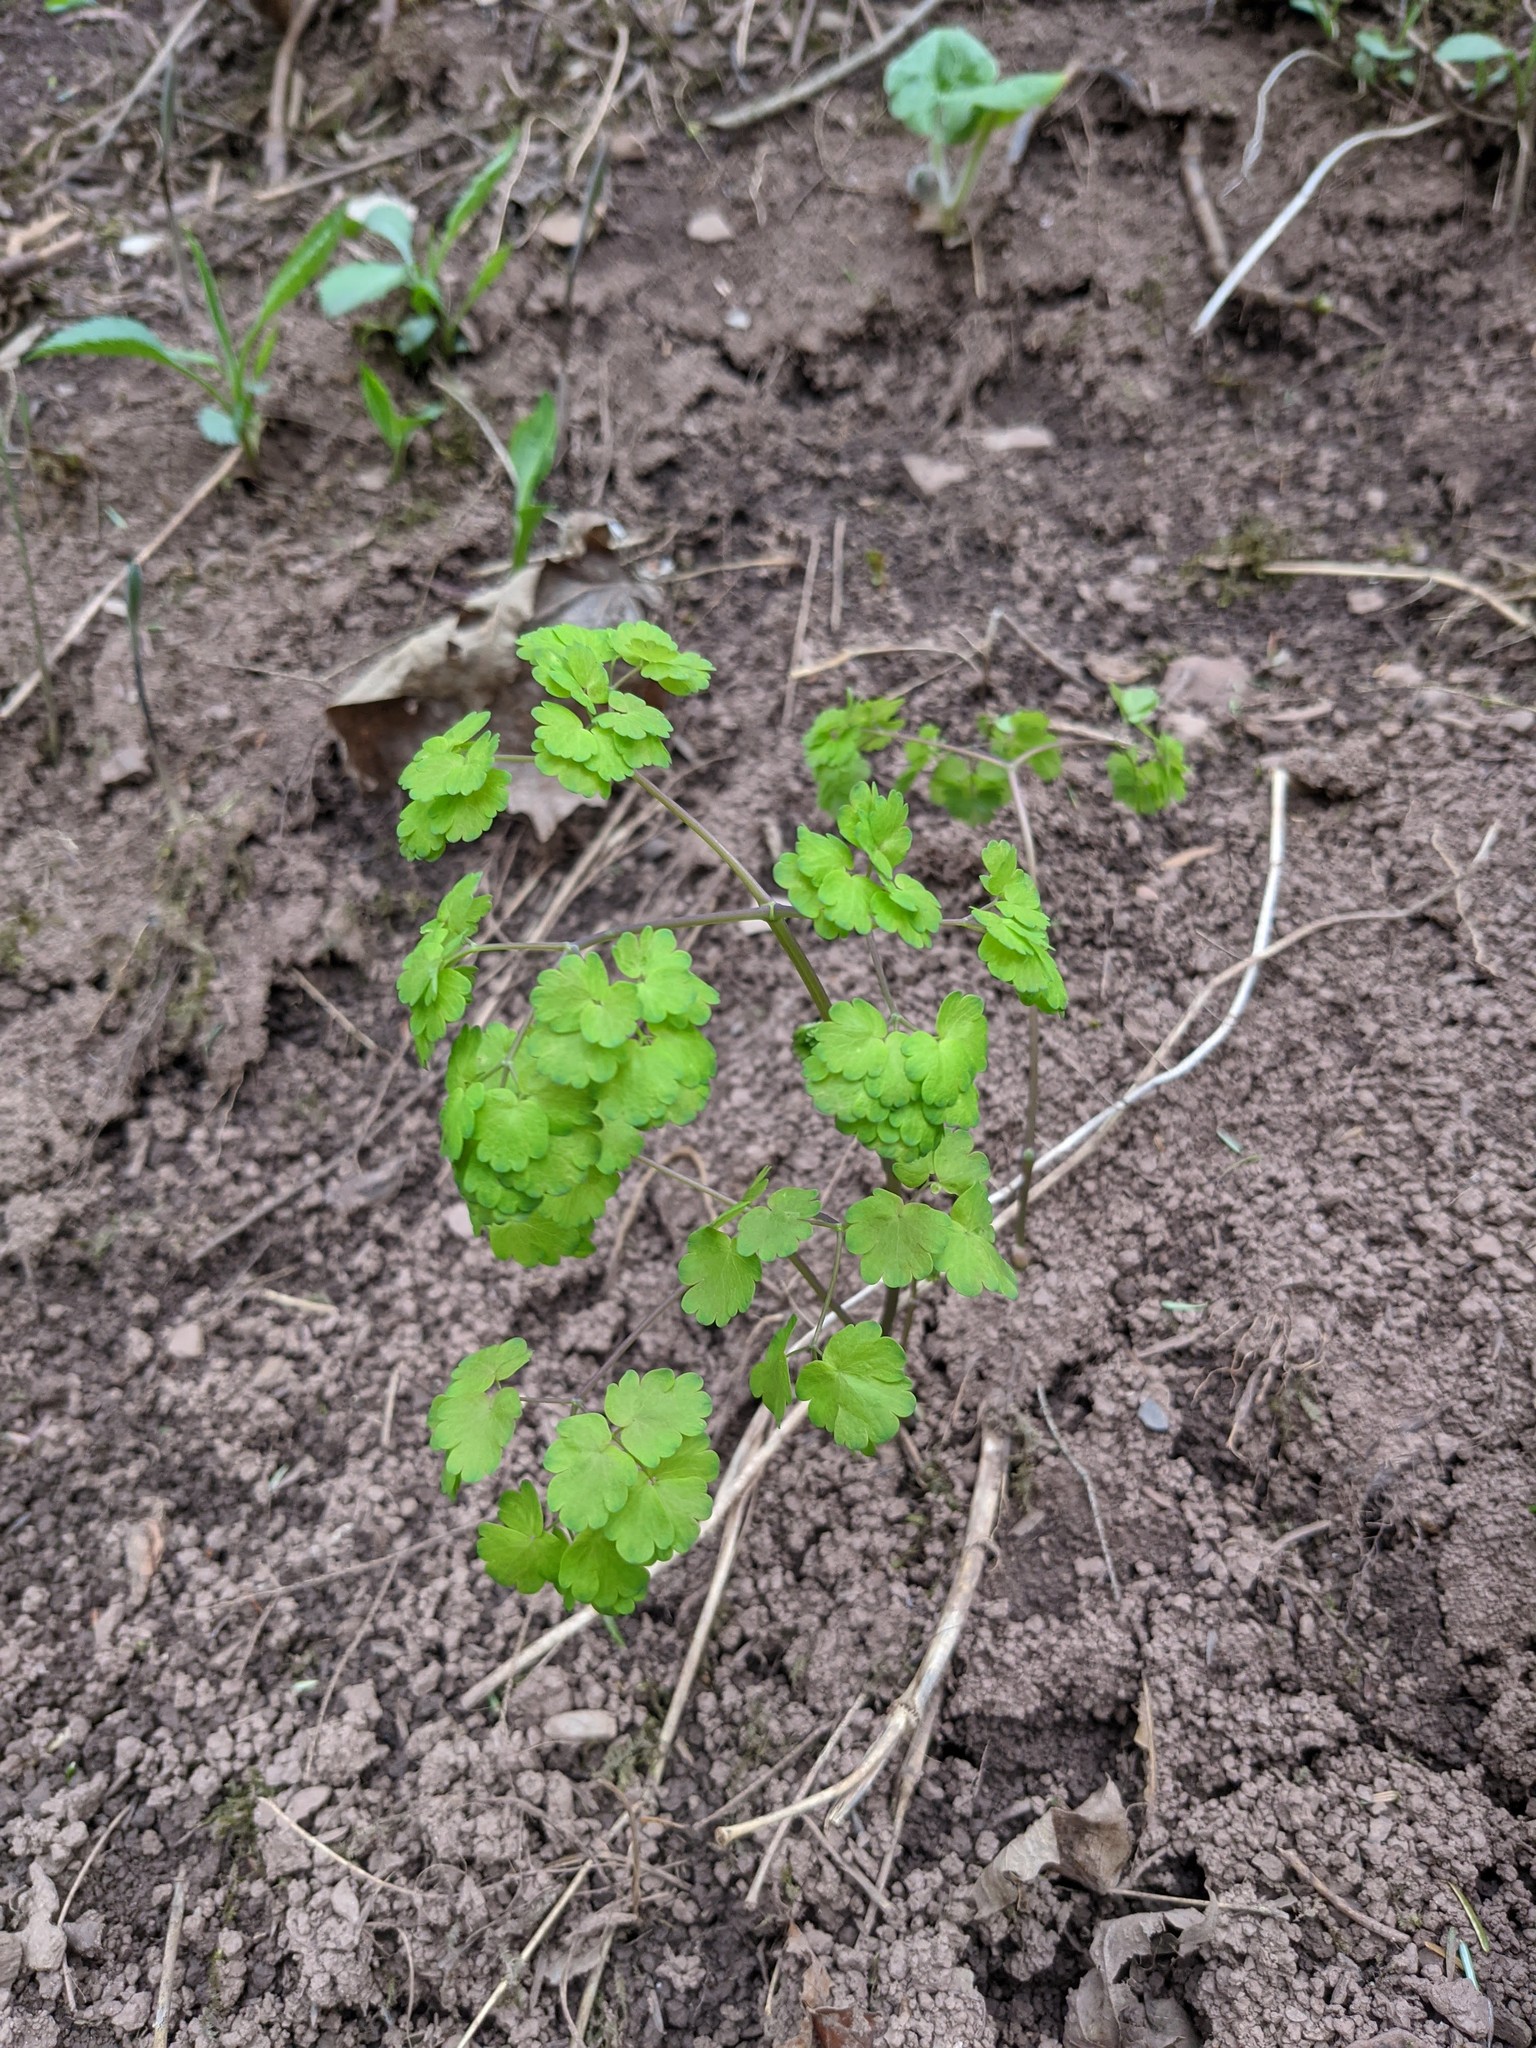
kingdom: Plantae
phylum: Tracheophyta
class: Magnoliopsida
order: Ranunculales
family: Ranunculaceae
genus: Thalictrum
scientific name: Thalictrum dioicum
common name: Early meadow-rue
